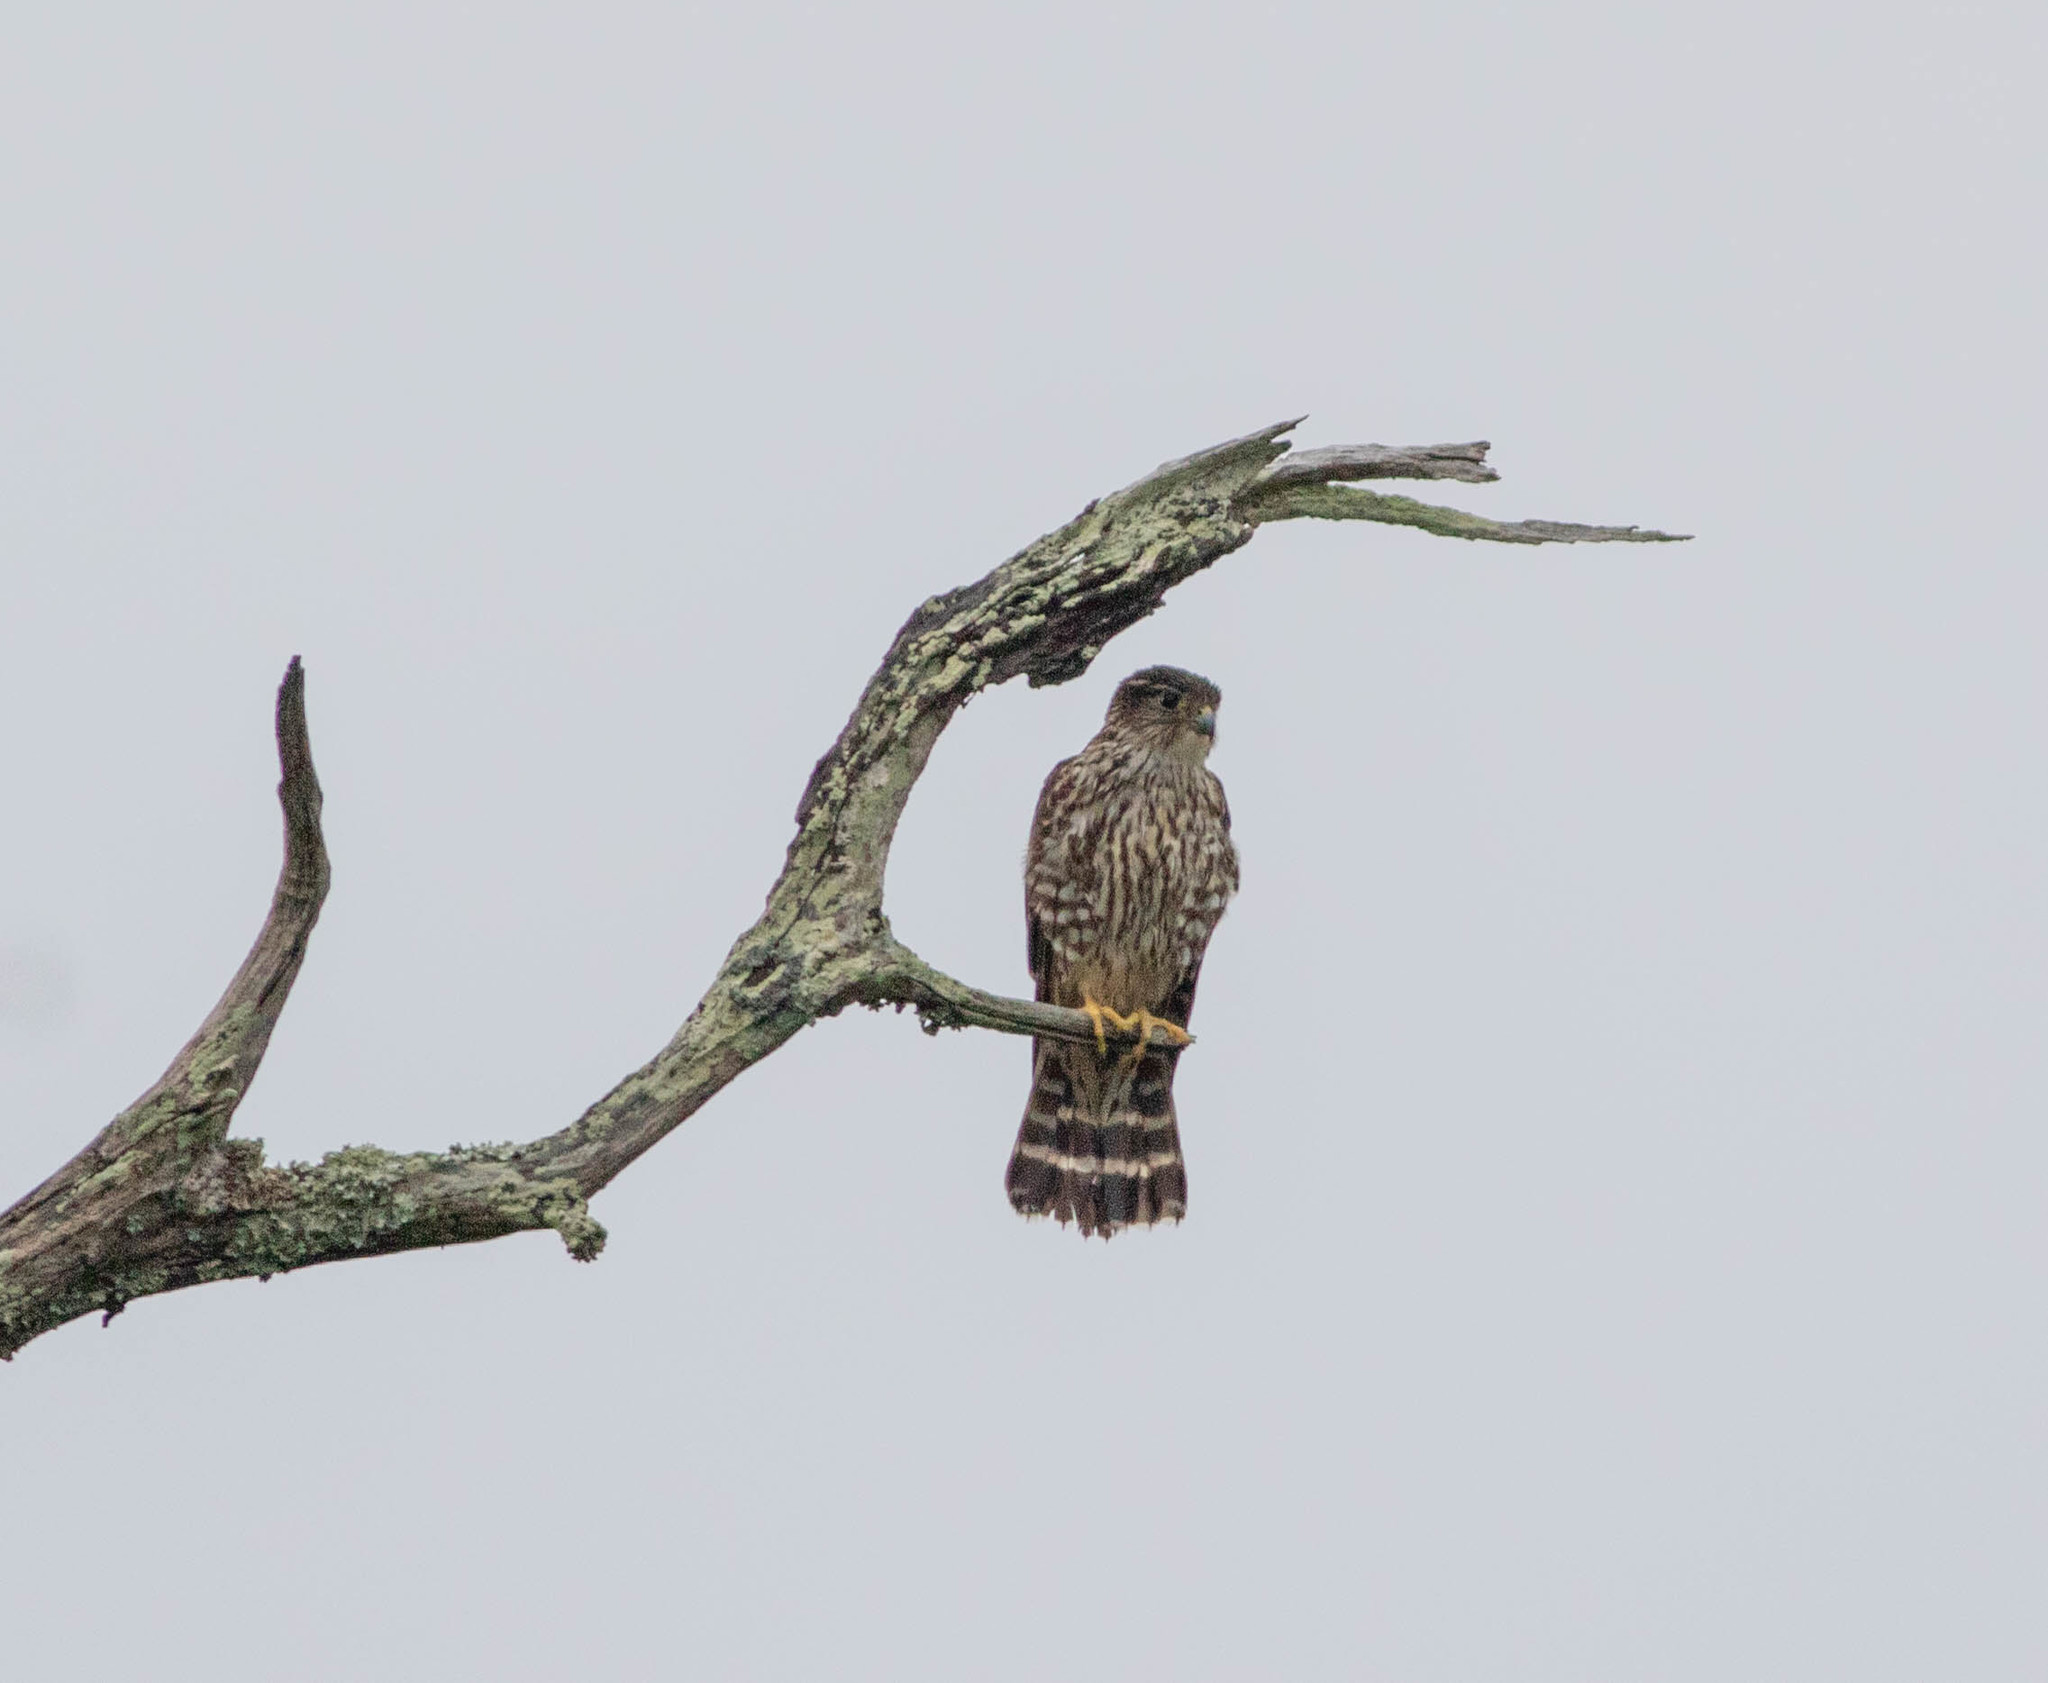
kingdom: Animalia
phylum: Chordata
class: Aves
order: Falconiformes
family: Falconidae
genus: Falco
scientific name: Falco columbarius
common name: Merlin
